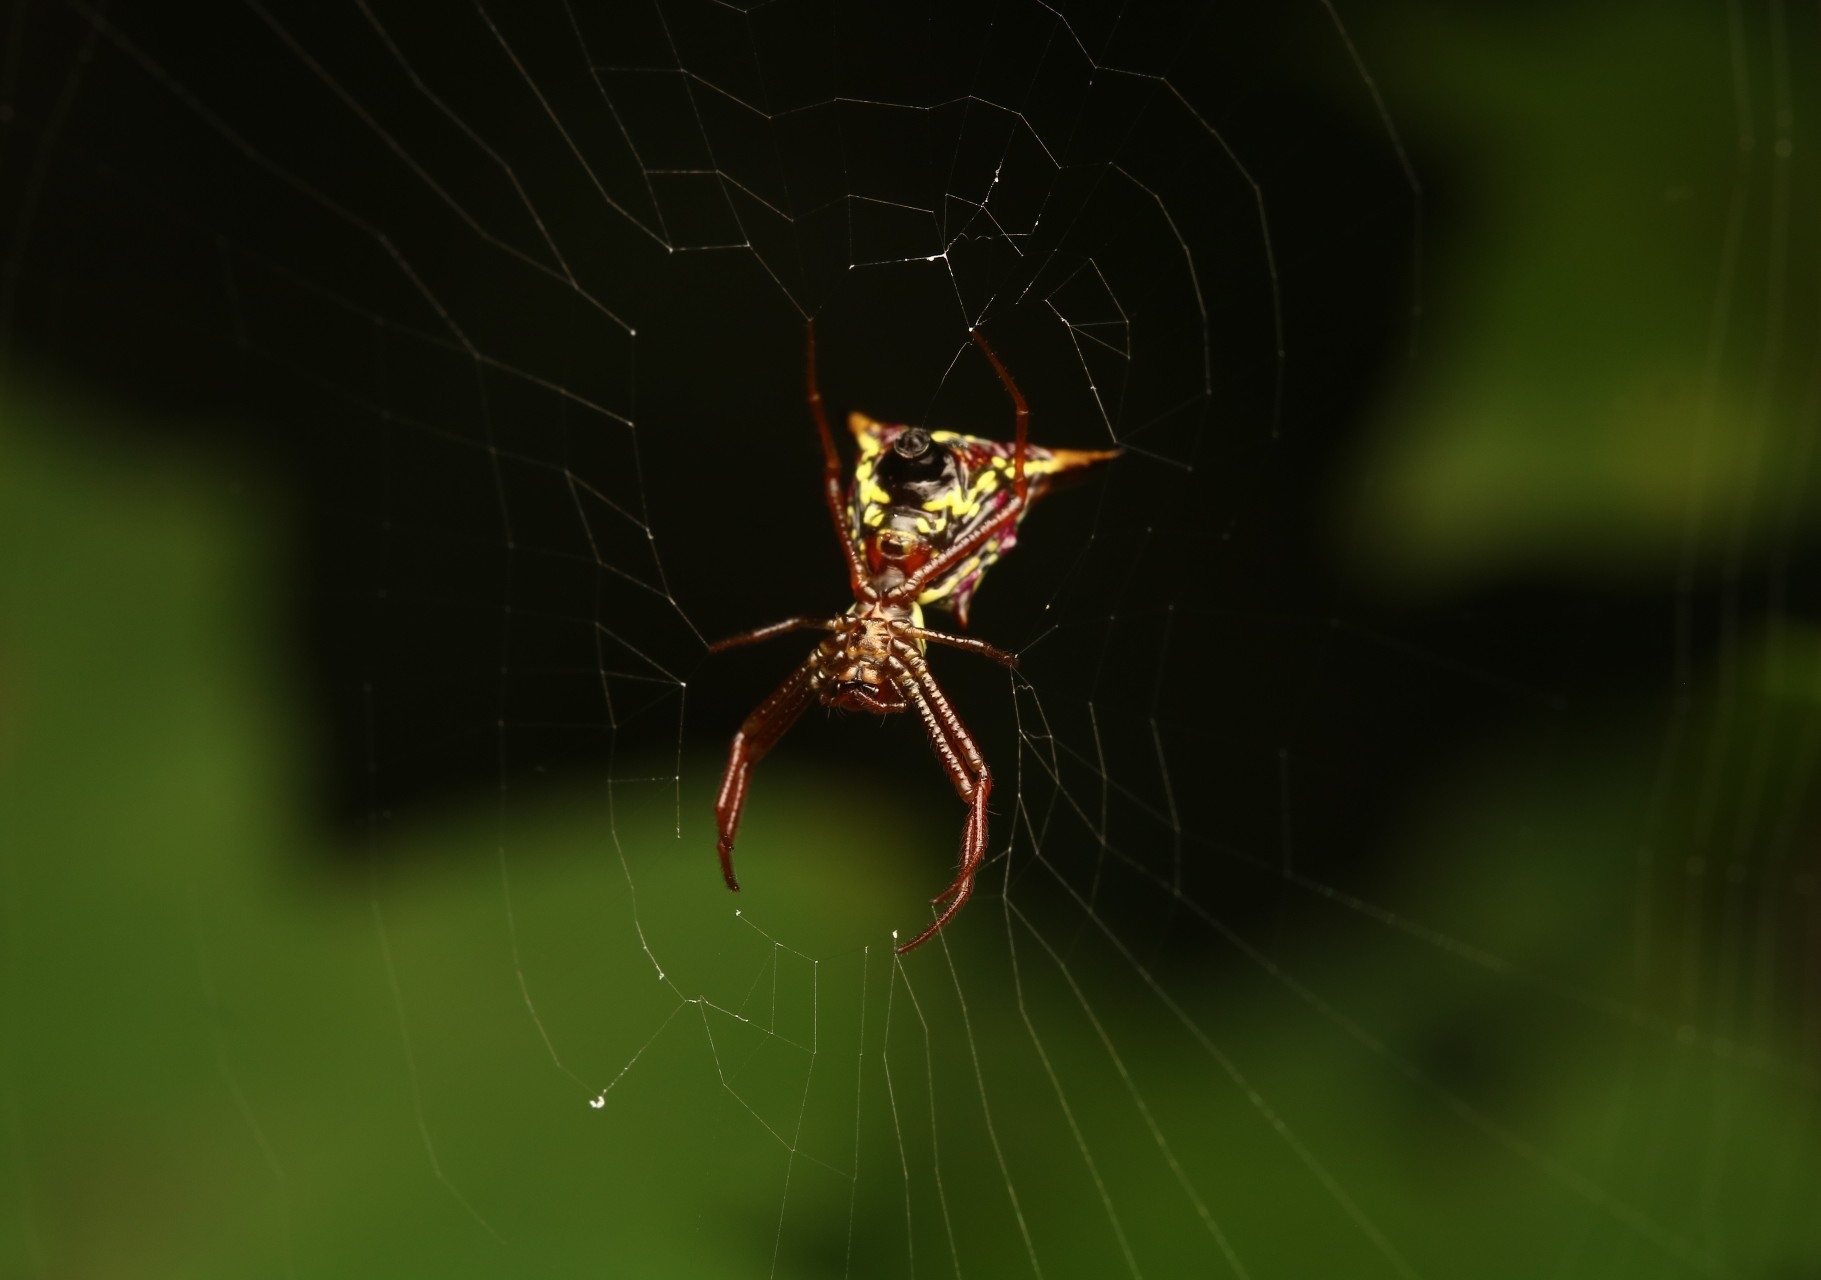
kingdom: Animalia
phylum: Arthropoda
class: Arachnida
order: Araneae
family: Araneidae
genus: Micrathena
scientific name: Micrathena sagittata
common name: Orb weavers
